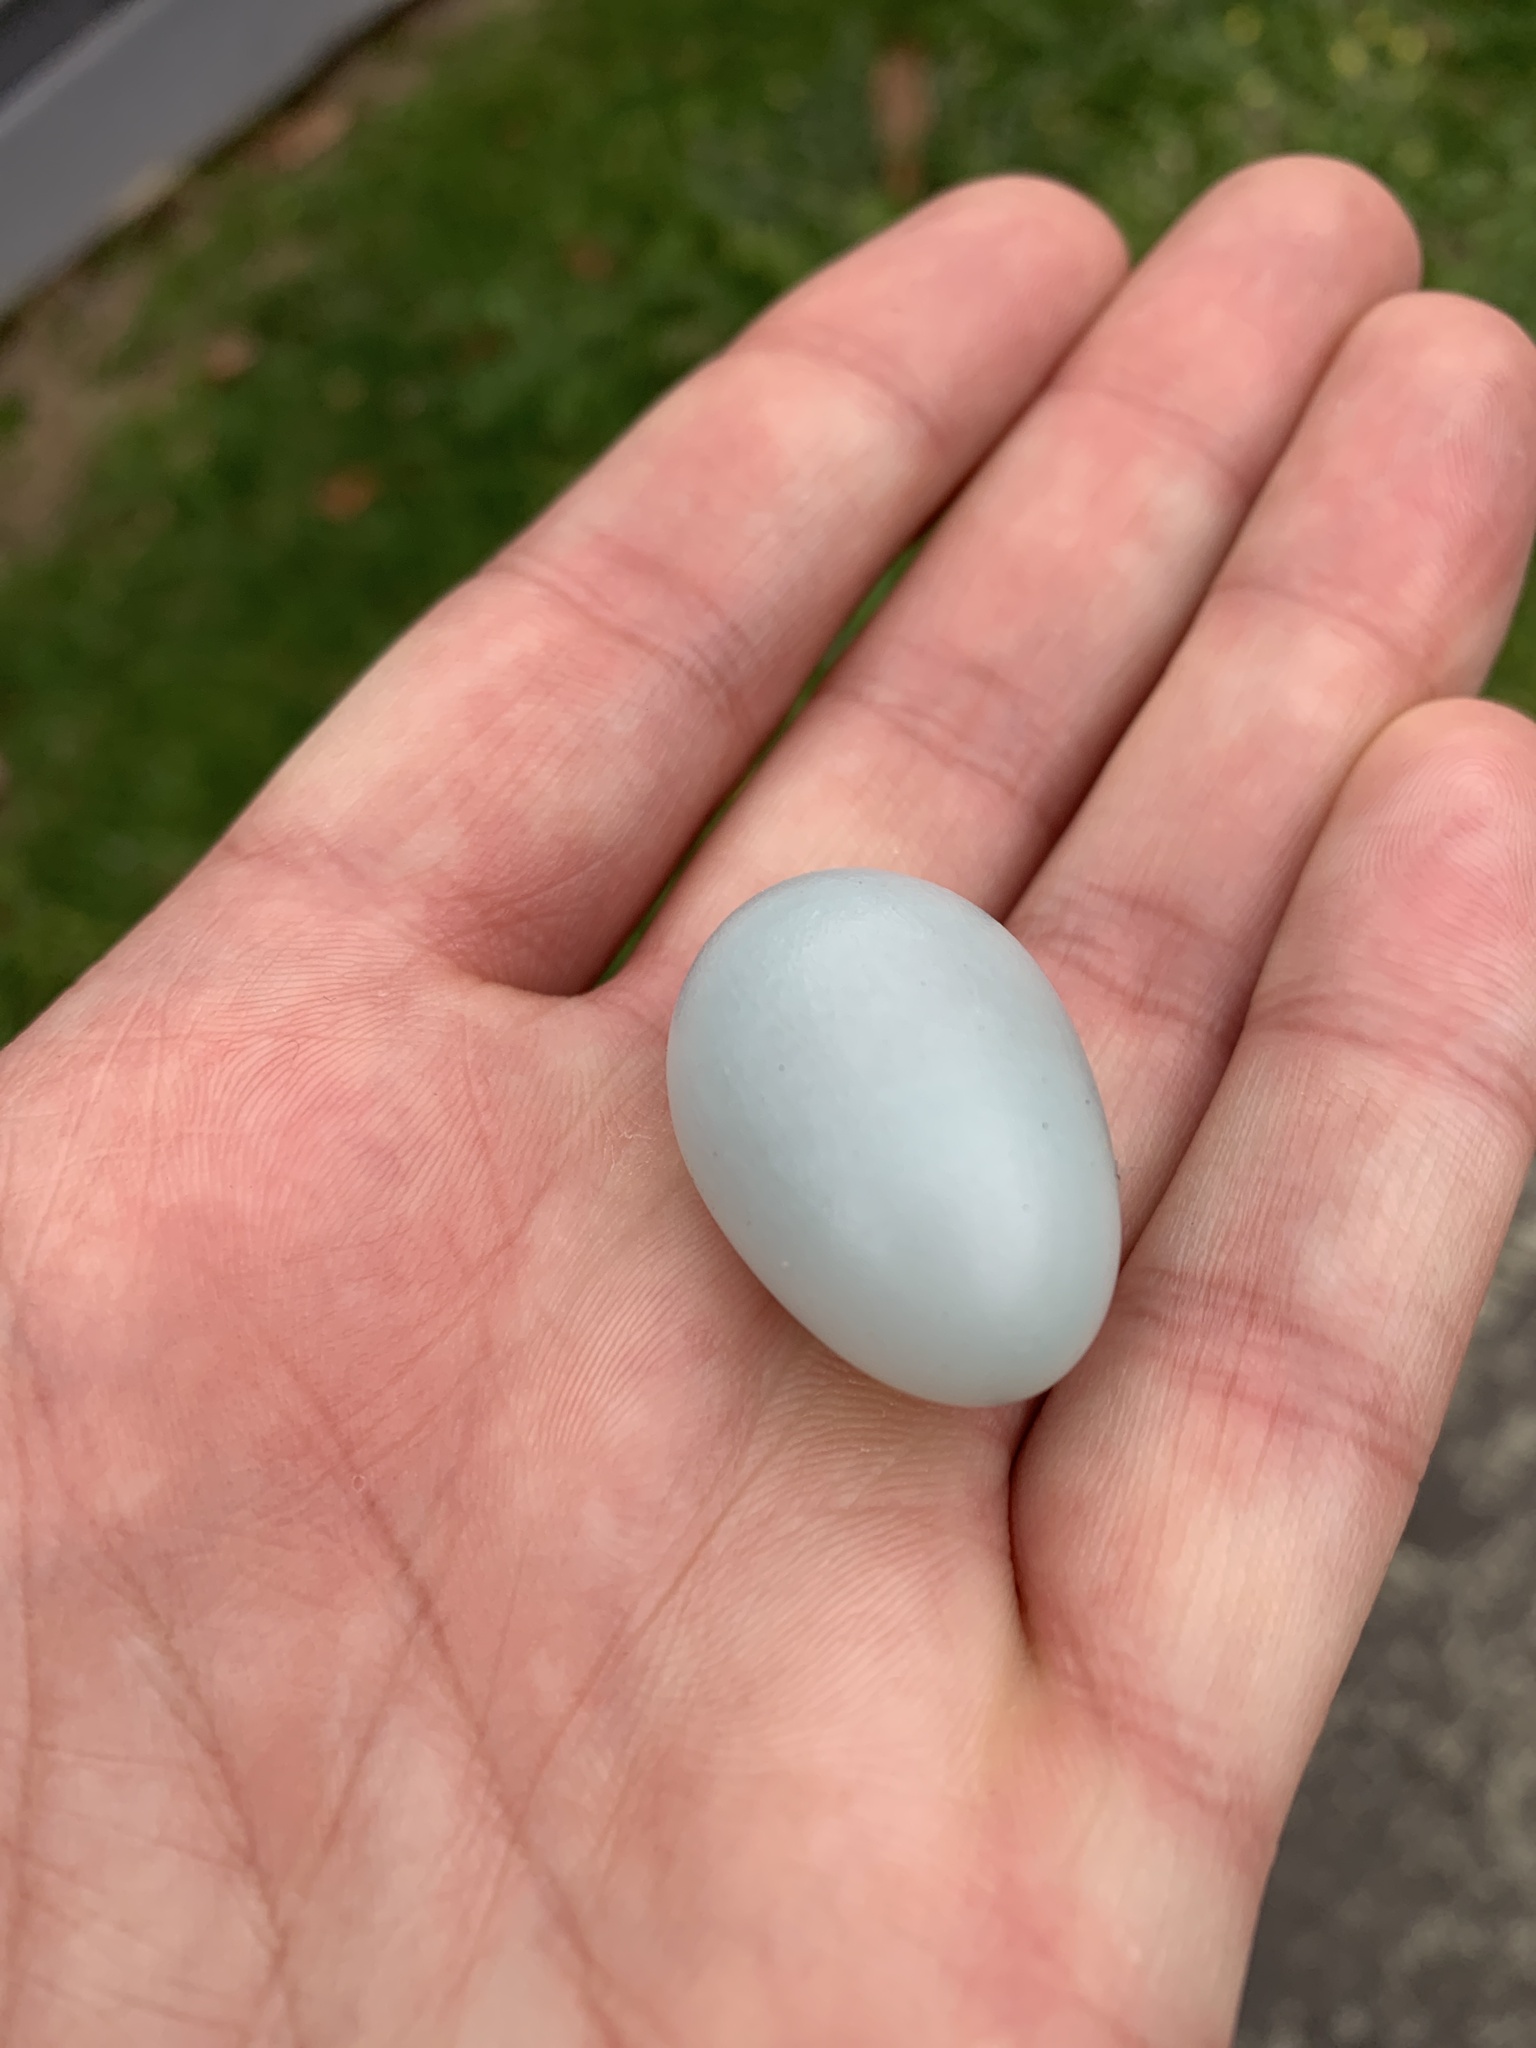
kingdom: Animalia
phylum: Chordata
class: Aves
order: Passeriformes
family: Sturnidae
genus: Sturnus
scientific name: Sturnus vulgaris
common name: Common starling
